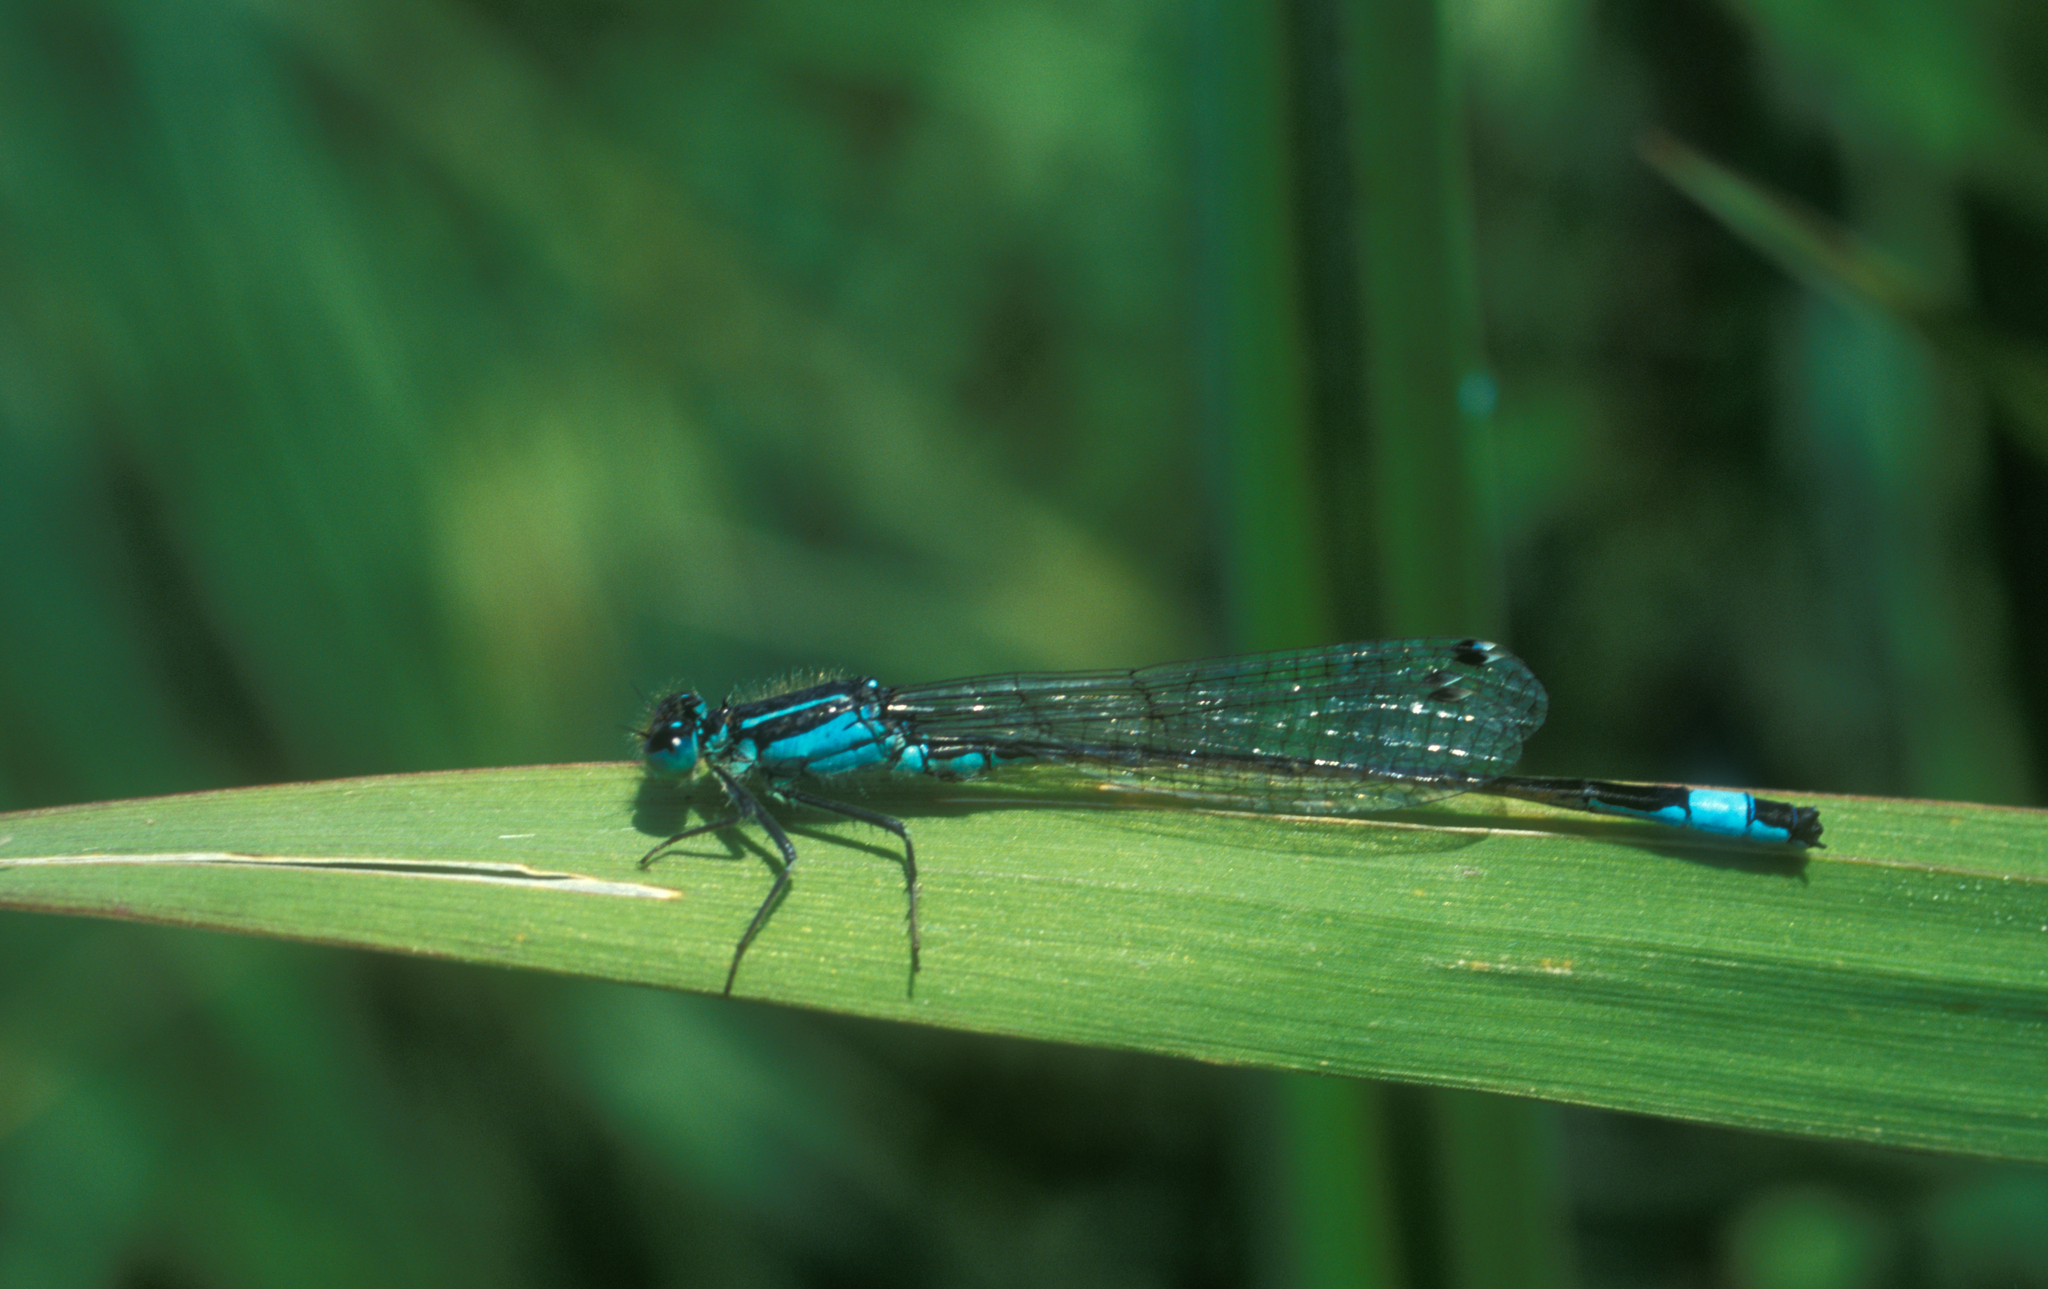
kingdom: Animalia
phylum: Arthropoda
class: Insecta
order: Odonata
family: Coenagrionidae
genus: Ischnura
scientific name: Ischnura elegans
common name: Blue-tailed damselfly
